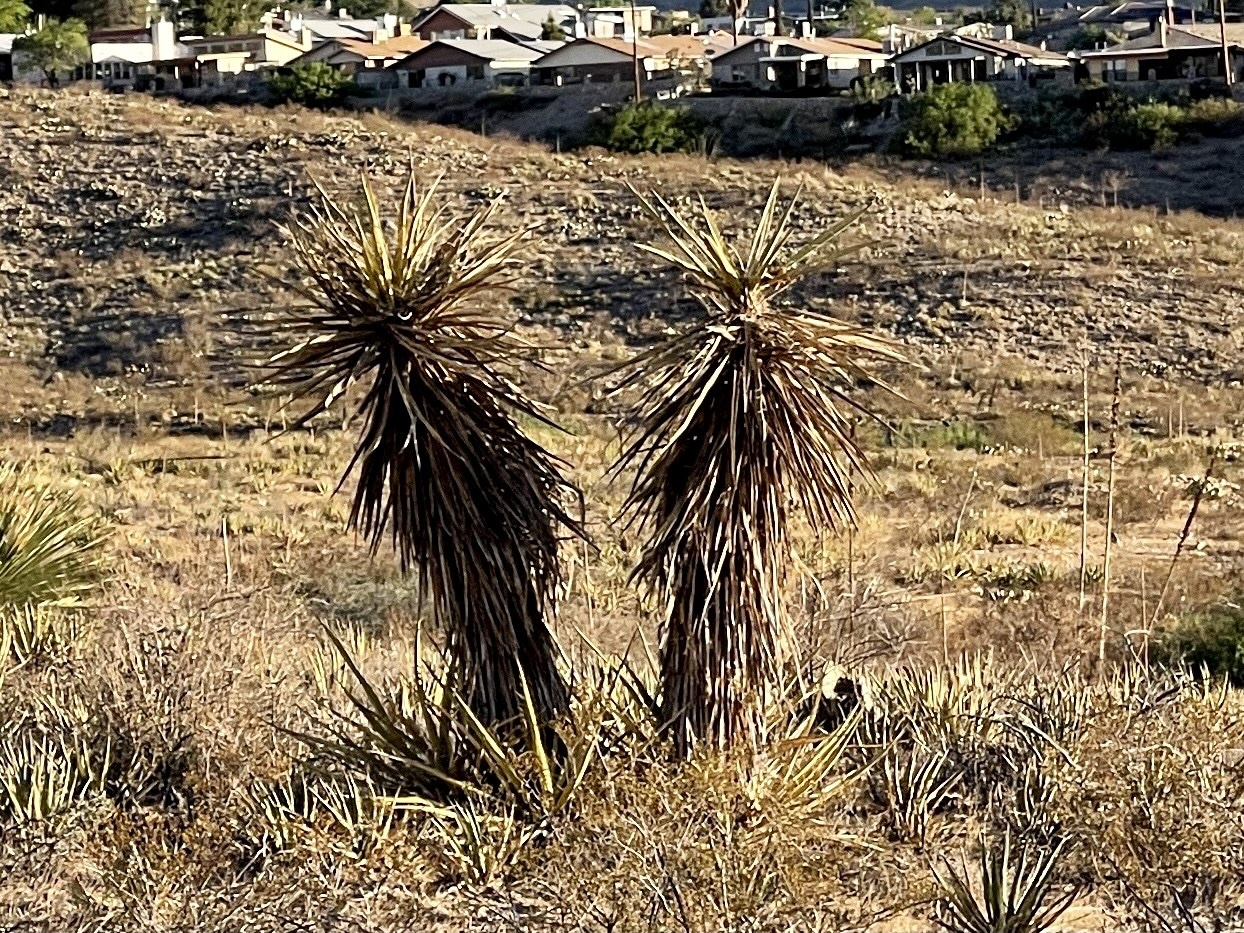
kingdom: Plantae
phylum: Tracheophyta
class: Liliopsida
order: Asparagales
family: Asparagaceae
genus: Yucca
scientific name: Yucca treculiana
